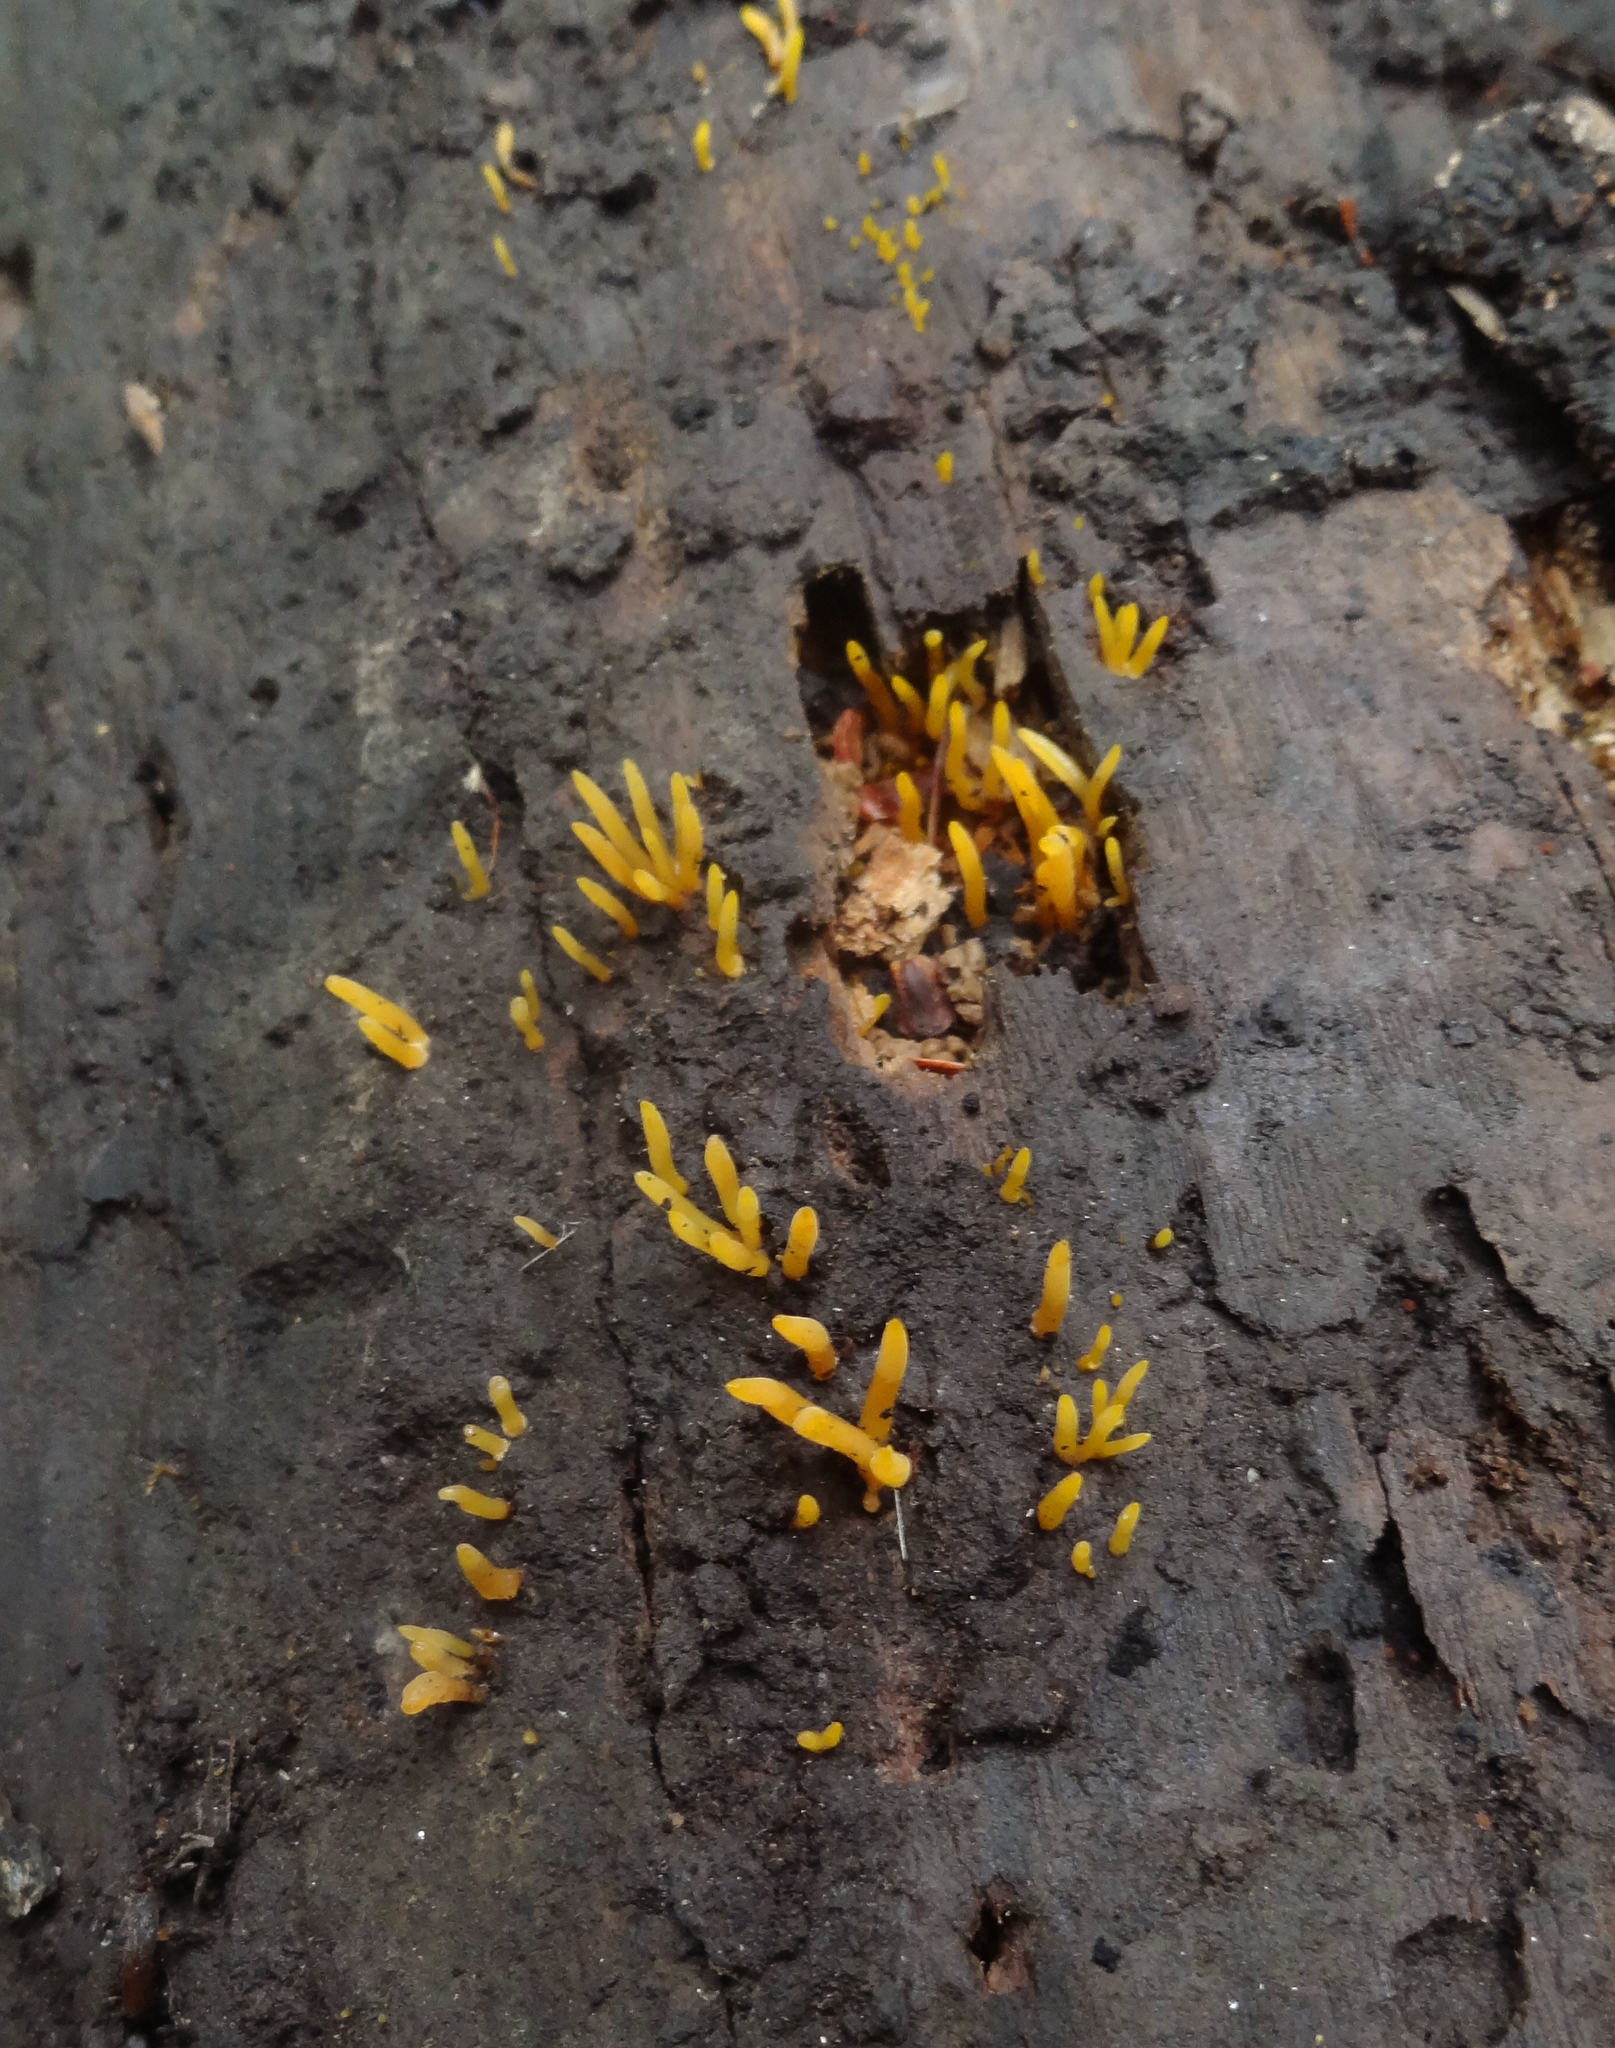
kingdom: Fungi
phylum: Basidiomycota
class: Dacrymycetes
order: Dacrymycetales
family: Dacrymycetaceae
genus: Calocera
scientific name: Calocera cornea
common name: Small stagshorn
